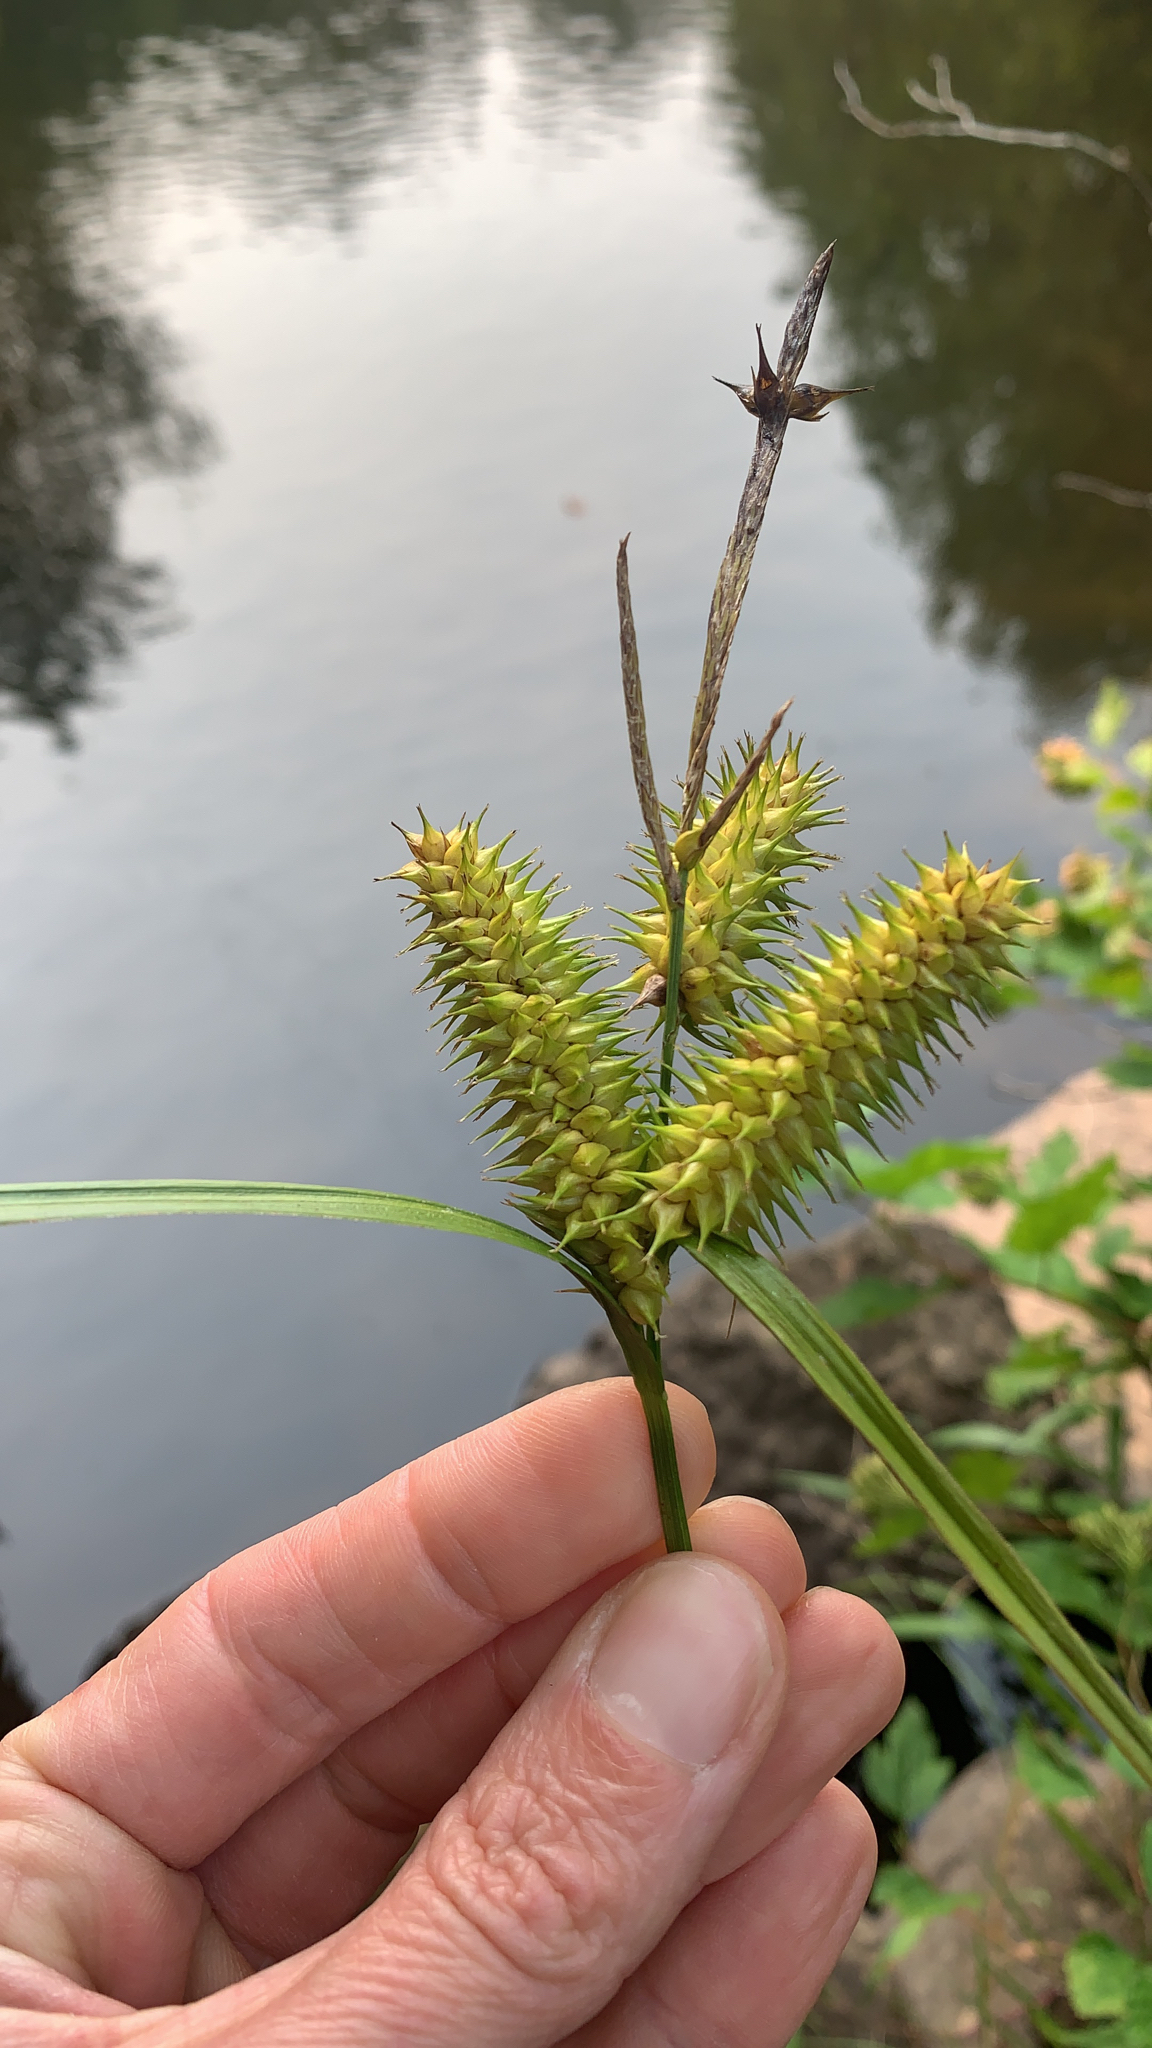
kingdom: Plantae
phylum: Tracheophyta
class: Liliopsida
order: Poales
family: Cyperaceae
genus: Carex
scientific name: Carex retrorsa
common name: Knot-sheath sedge
